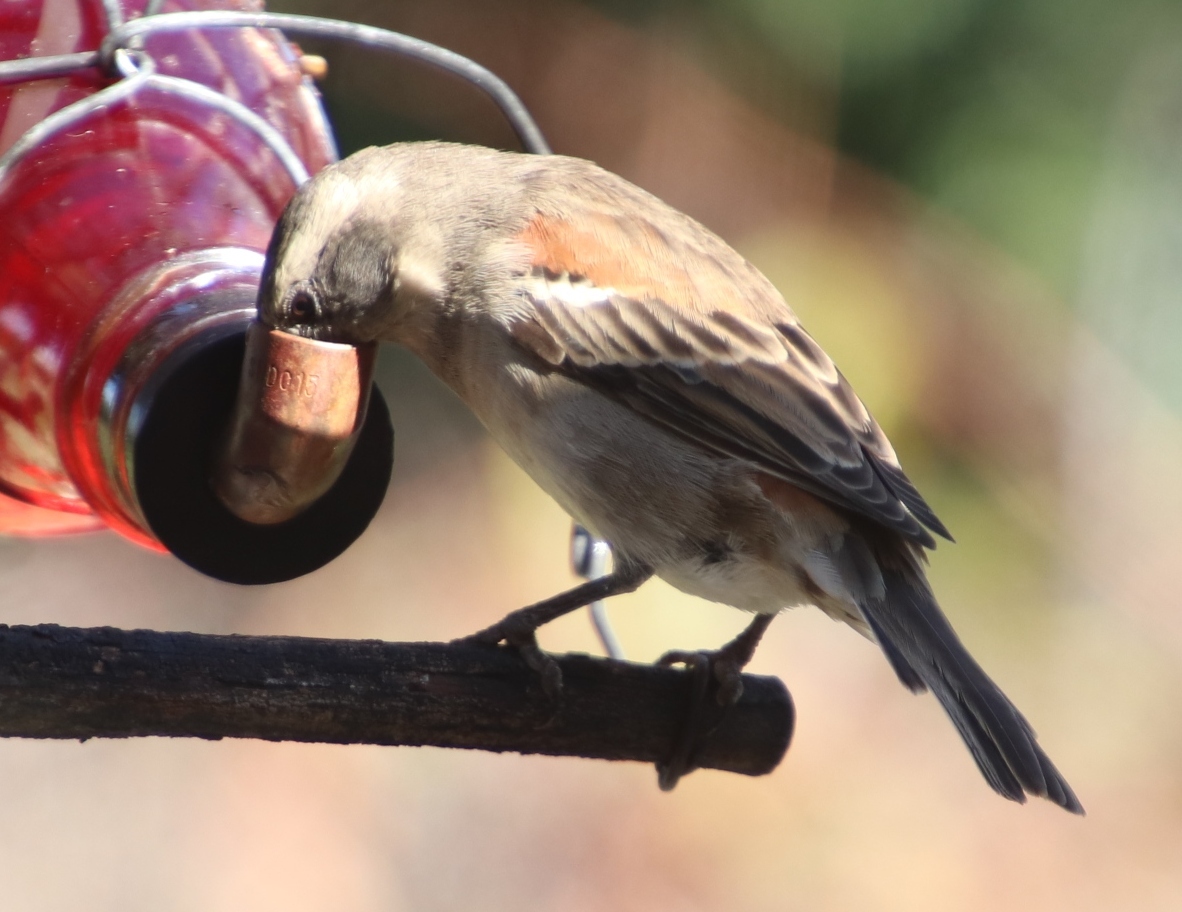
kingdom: Animalia
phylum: Chordata
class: Aves
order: Passeriformes
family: Passeridae
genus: Passer
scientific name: Passer melanurus
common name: Cape sparrow
